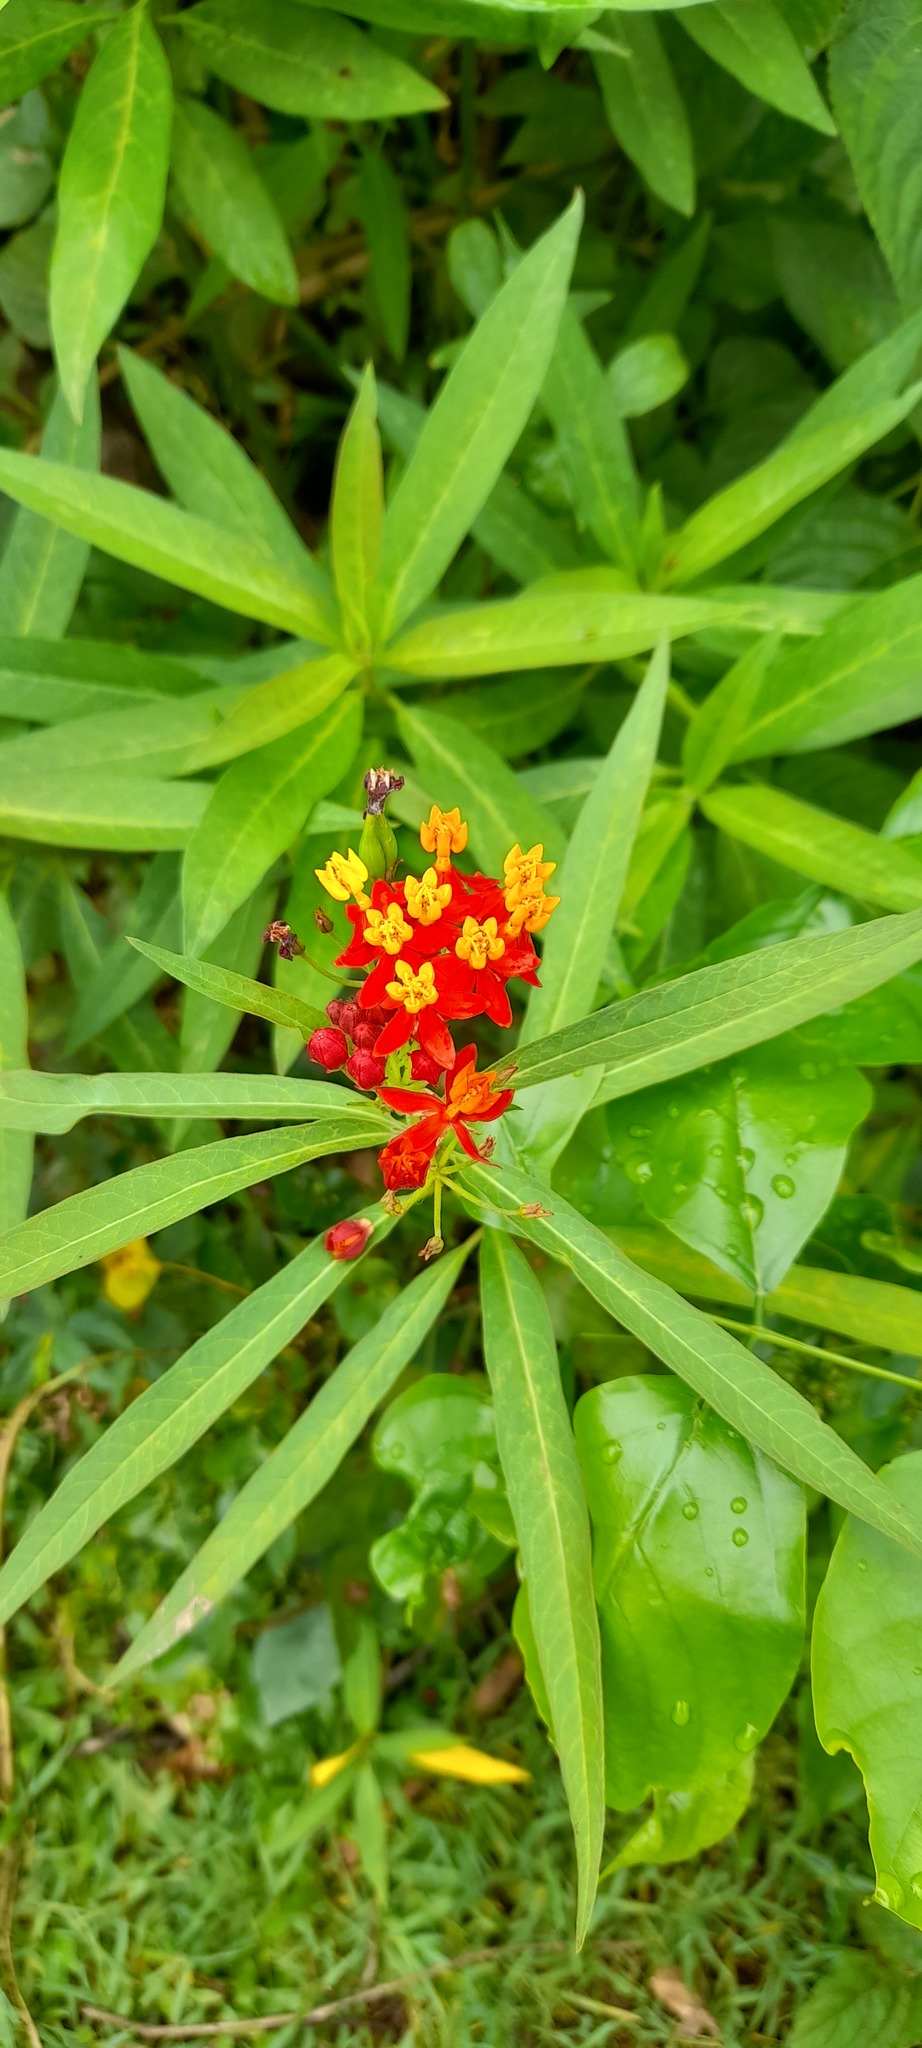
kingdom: Plantae
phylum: Tracheophyta
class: Magnoliopsida
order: Gentianales
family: Apocynaceae
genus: Asclepias
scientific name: Asclepias curassavica
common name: Bloodflower
